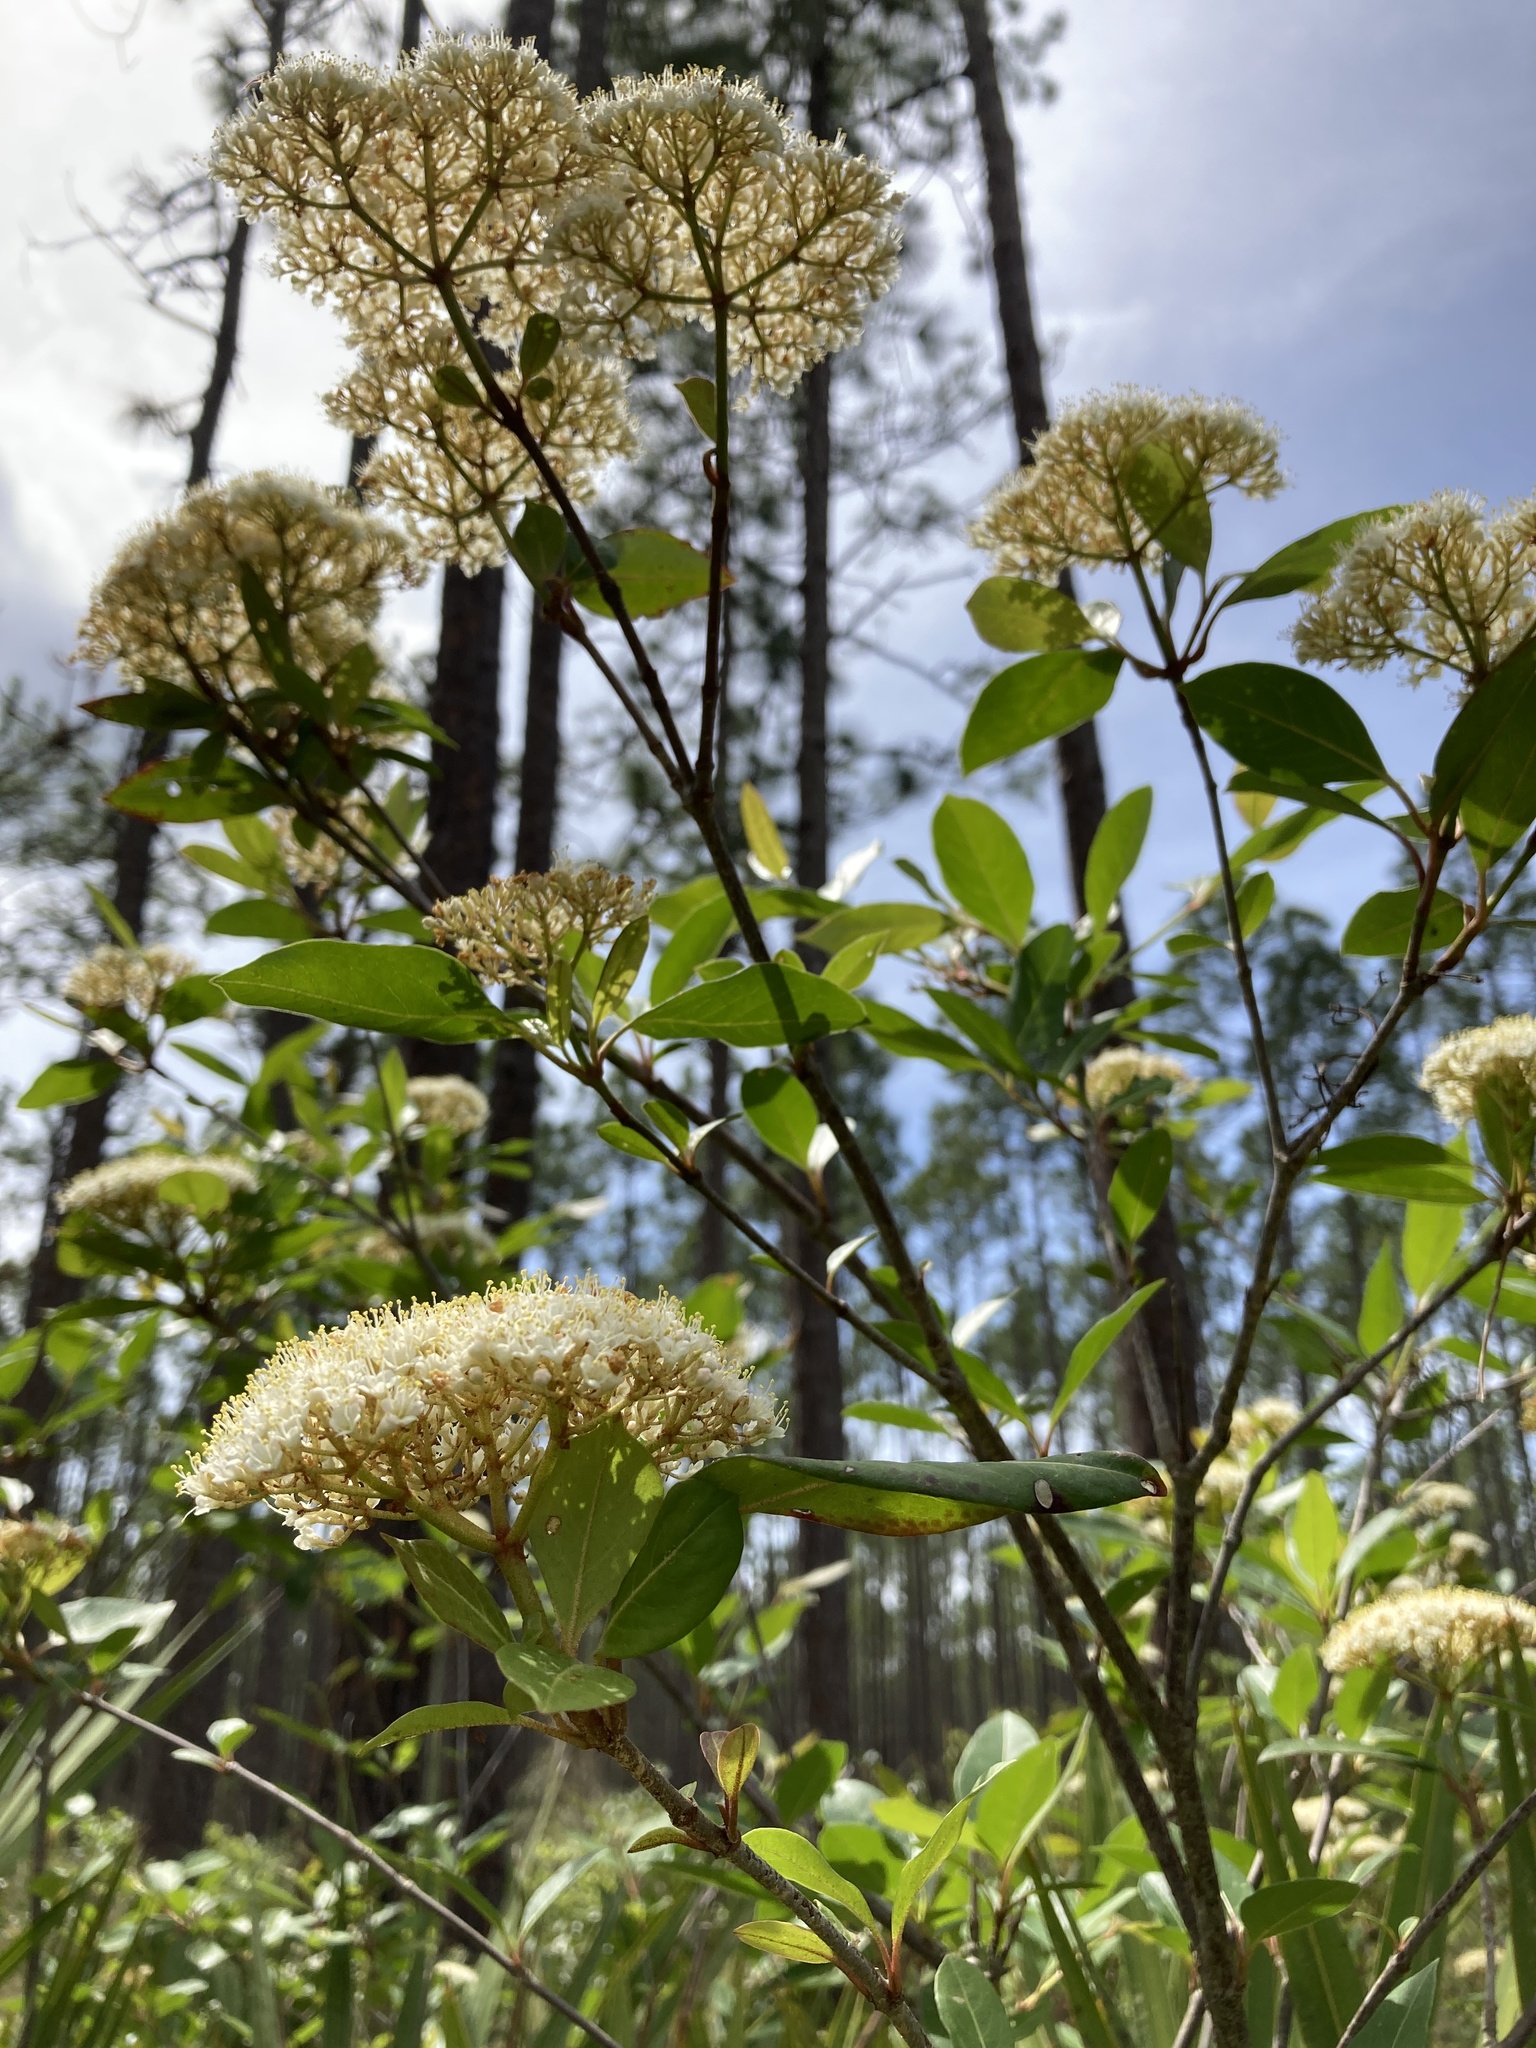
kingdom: Plantae
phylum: Tracheophyta
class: Magnoliopsida
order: Dipsacales
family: Viburnaceae
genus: Viburnum
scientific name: Viburnum nudum
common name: Possum haw
